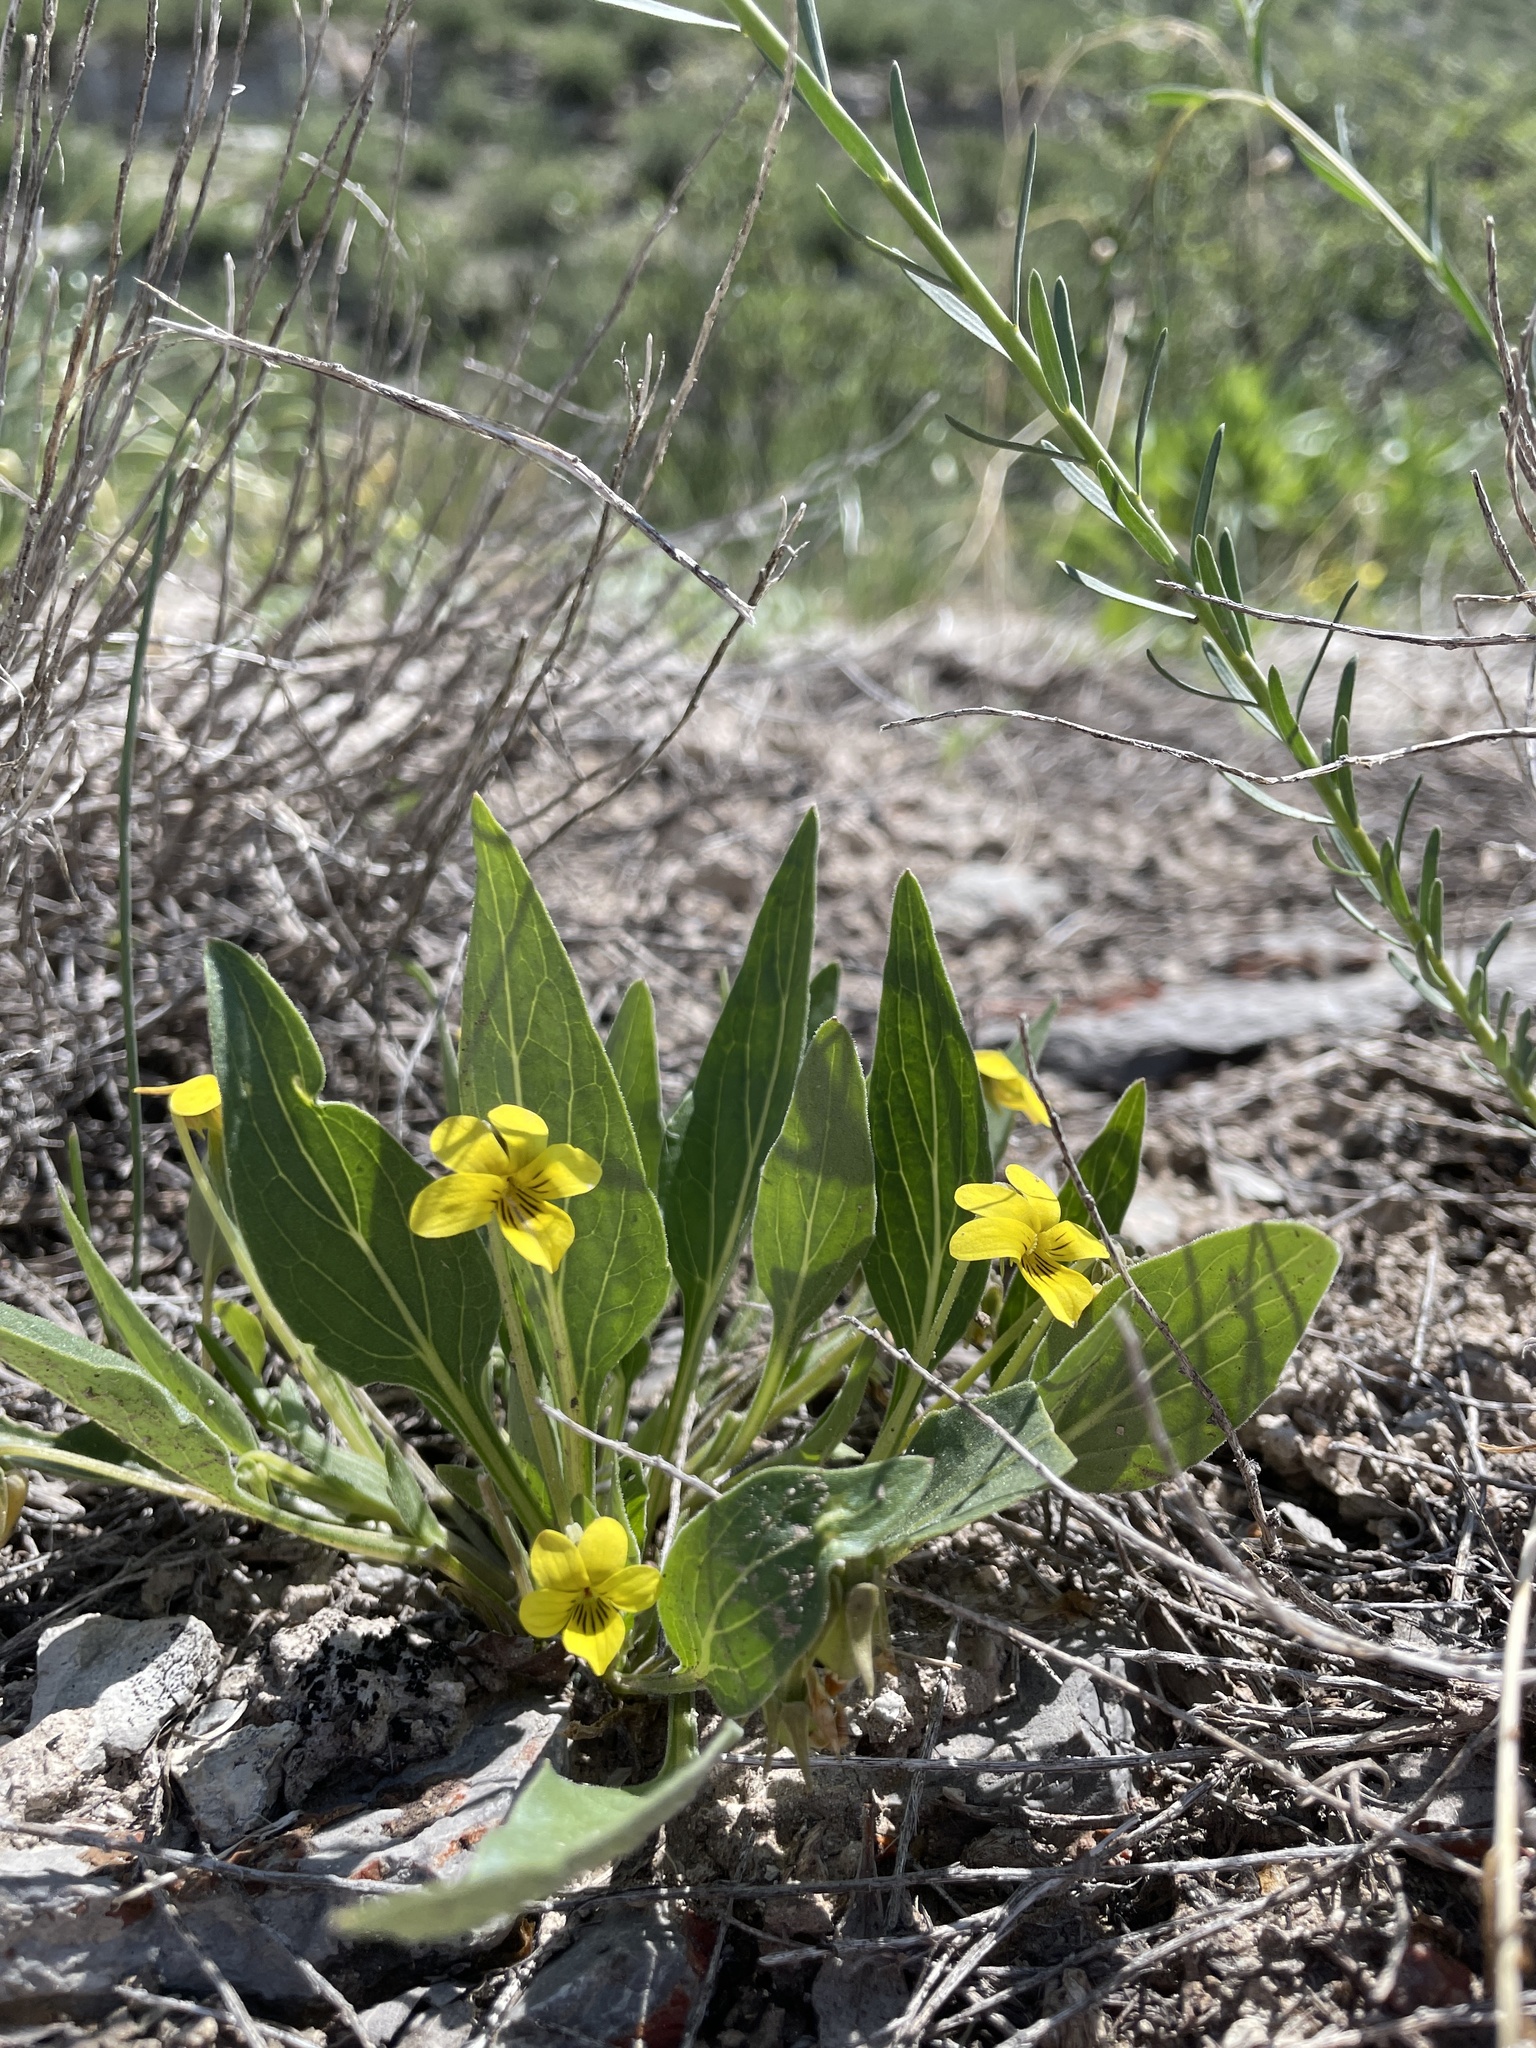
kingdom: Plantae
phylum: Tracheophyta
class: Magnoliopsida
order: Malpighiales
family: Violaceae
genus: Viola
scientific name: Viola nuttallii
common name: Yellow prairie violet
